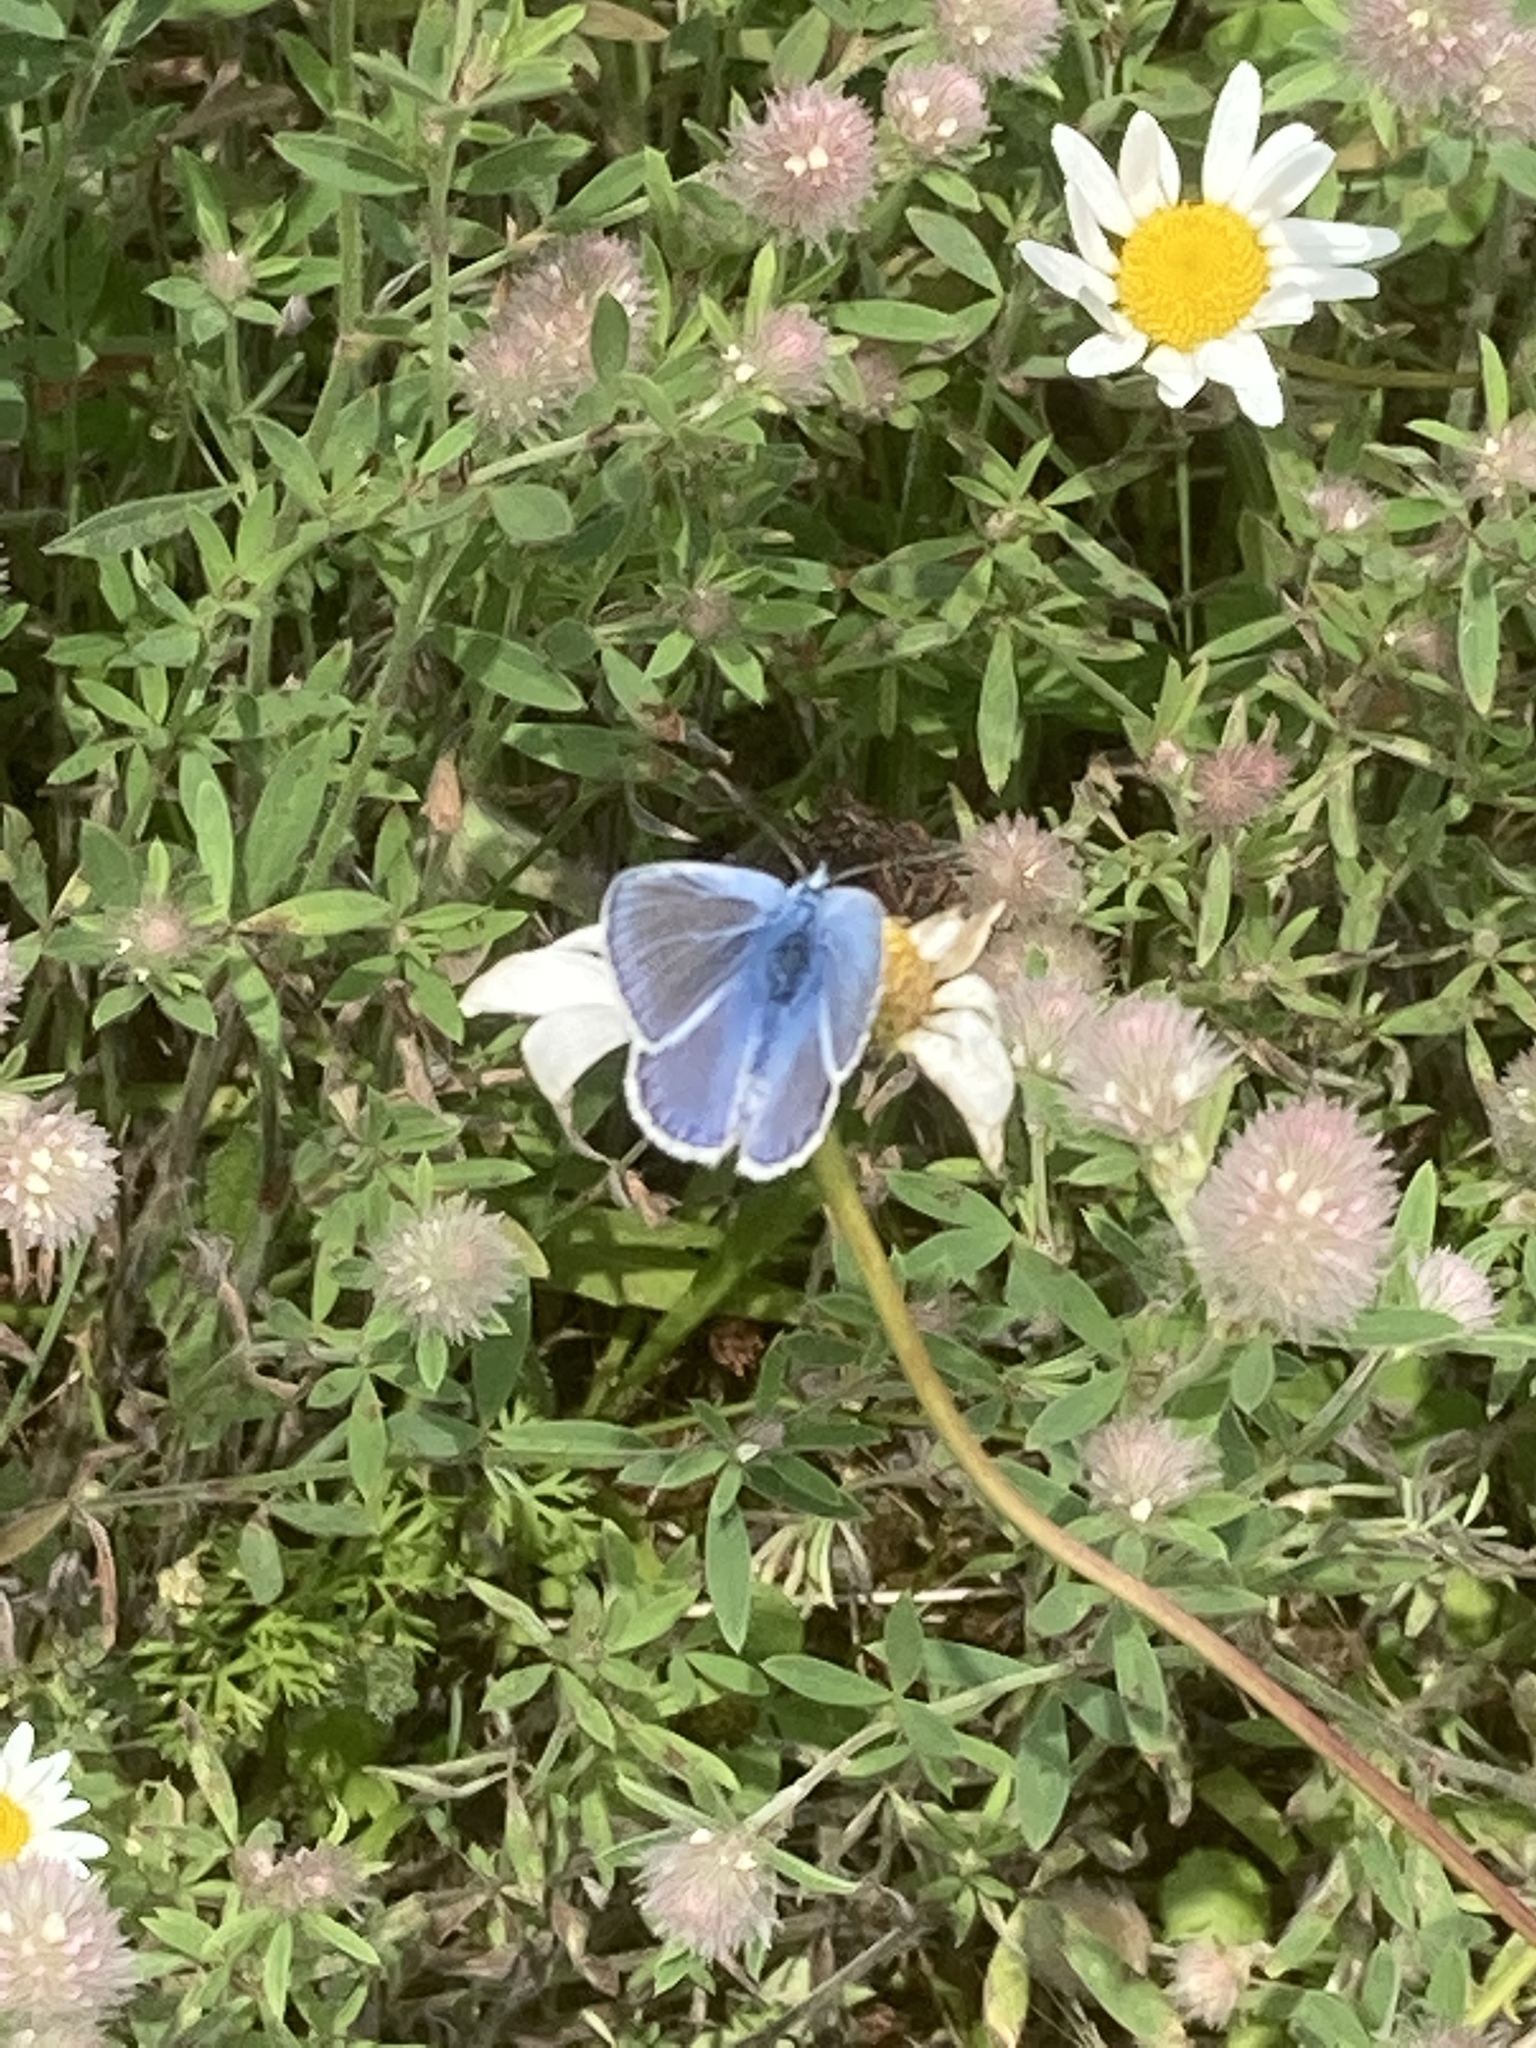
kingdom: Animalia
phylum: Arthropoda
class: Insecta
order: Lepidoptera
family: Lycaenidae
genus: Polyommatus
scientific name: Polyommatus icarus
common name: Common blue
